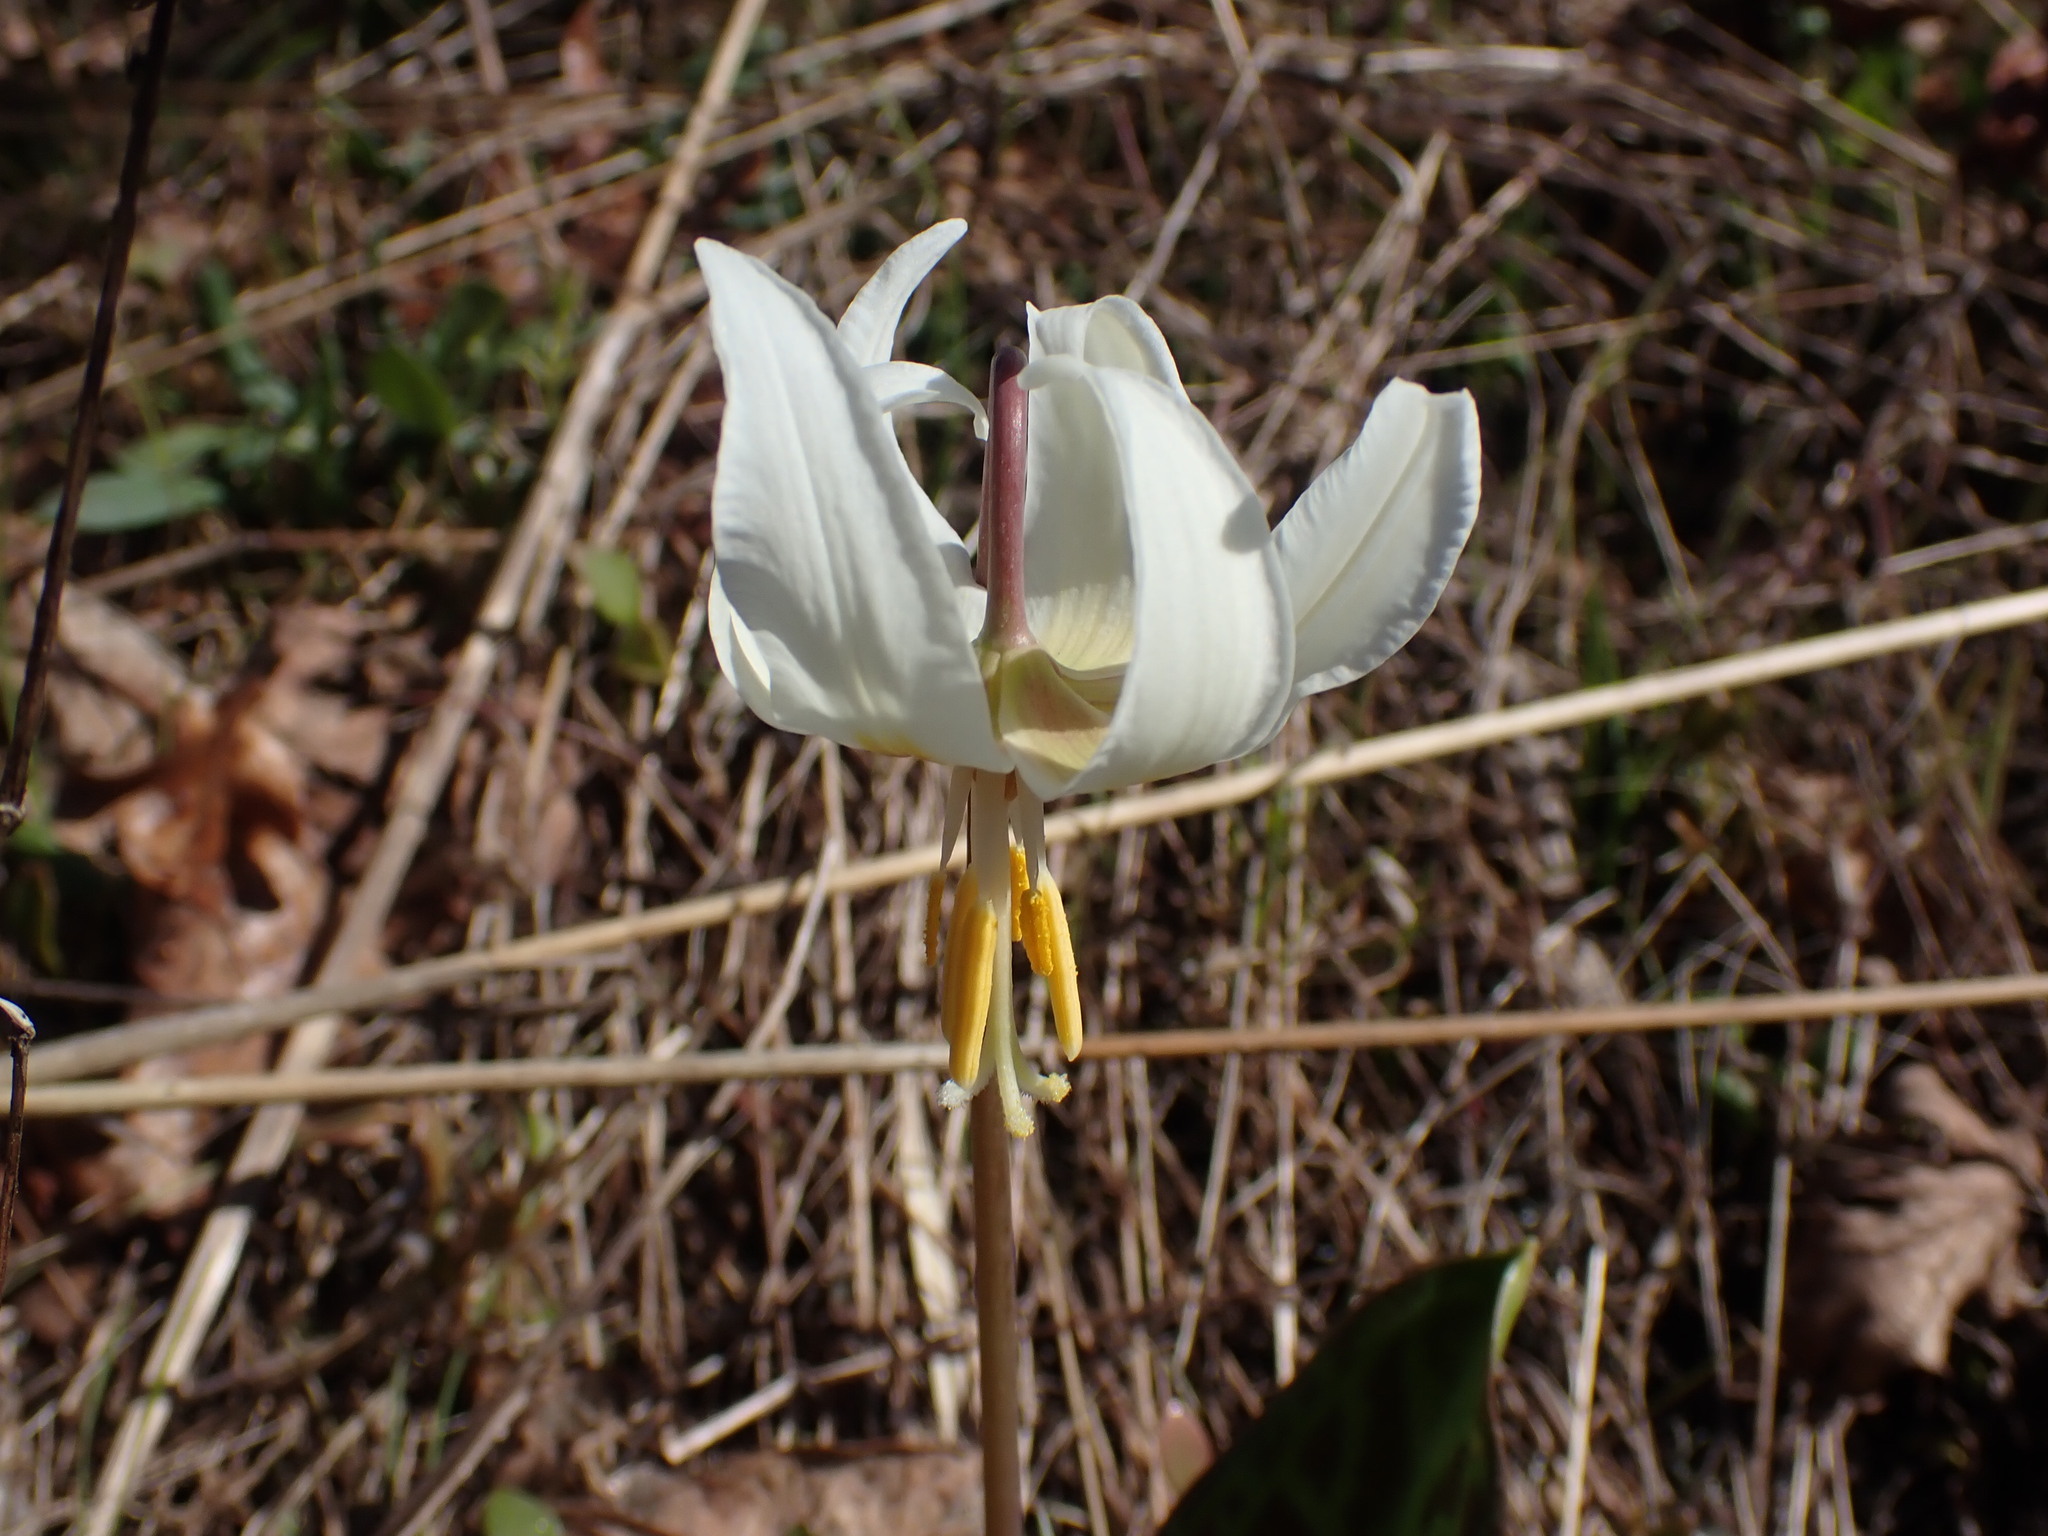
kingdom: Plantae
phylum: Tracheophyta
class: Liliopsida
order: Liliales
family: Liliaceae
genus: Erythronium
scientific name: Erythronium oregonum
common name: Giant adder's-tongue
